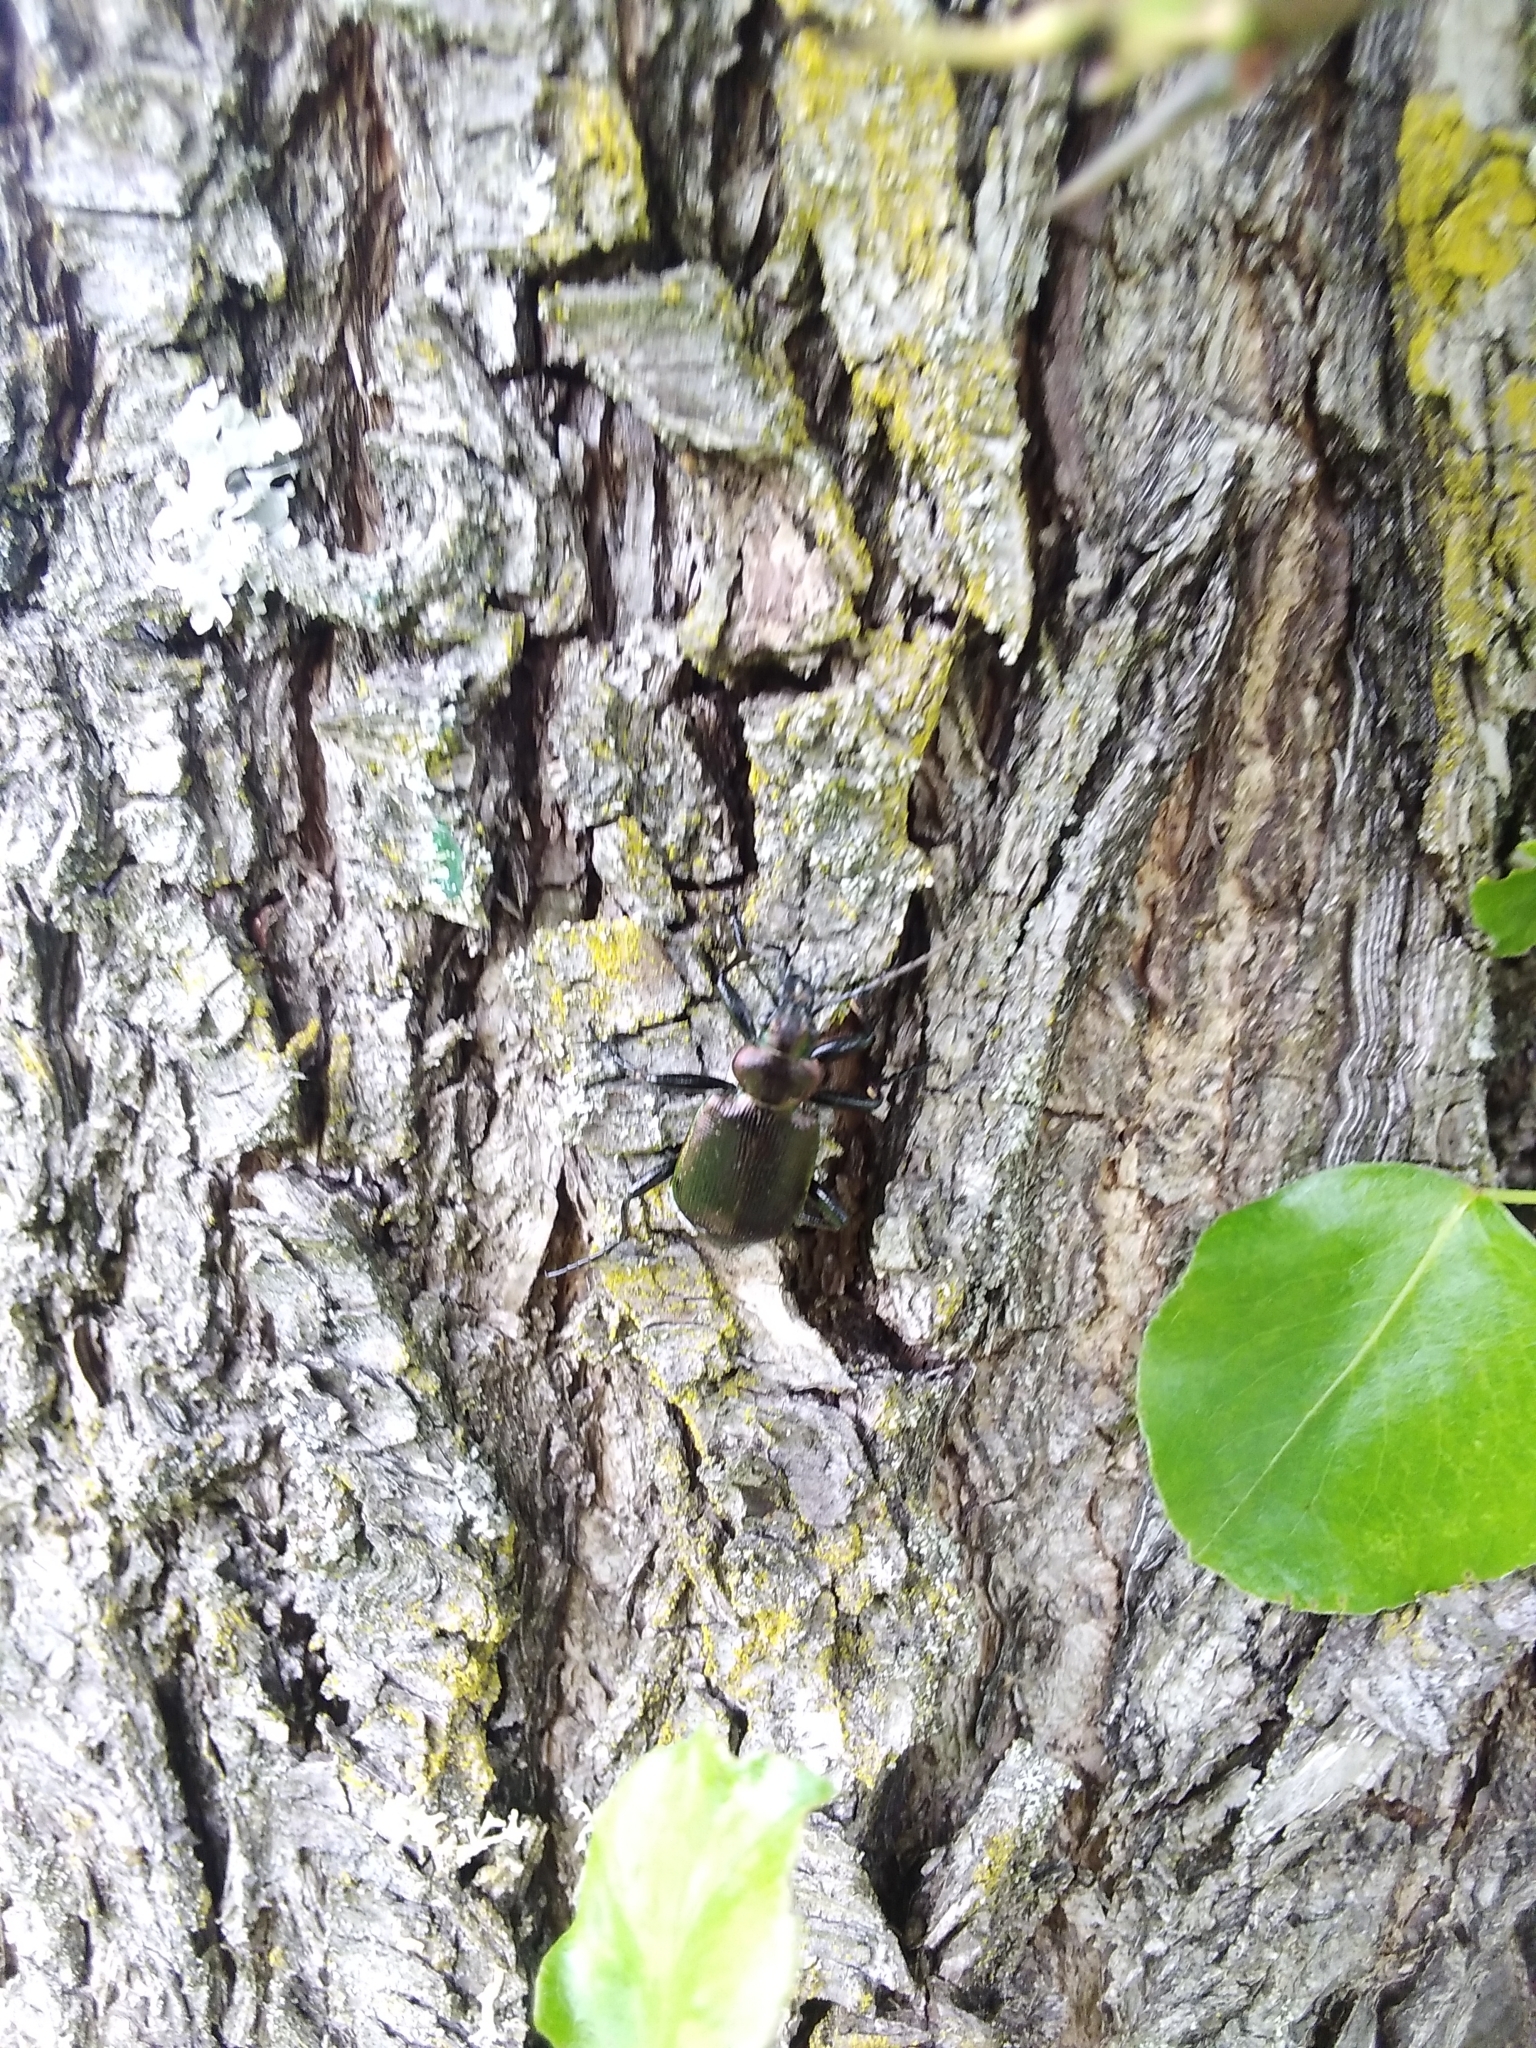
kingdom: Animalia
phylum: Arthropoda
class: Insecta
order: Coleoptera
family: Carabidae
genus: Calosoma
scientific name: Calosoma inquisitor
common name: Caterpillar-hunter
